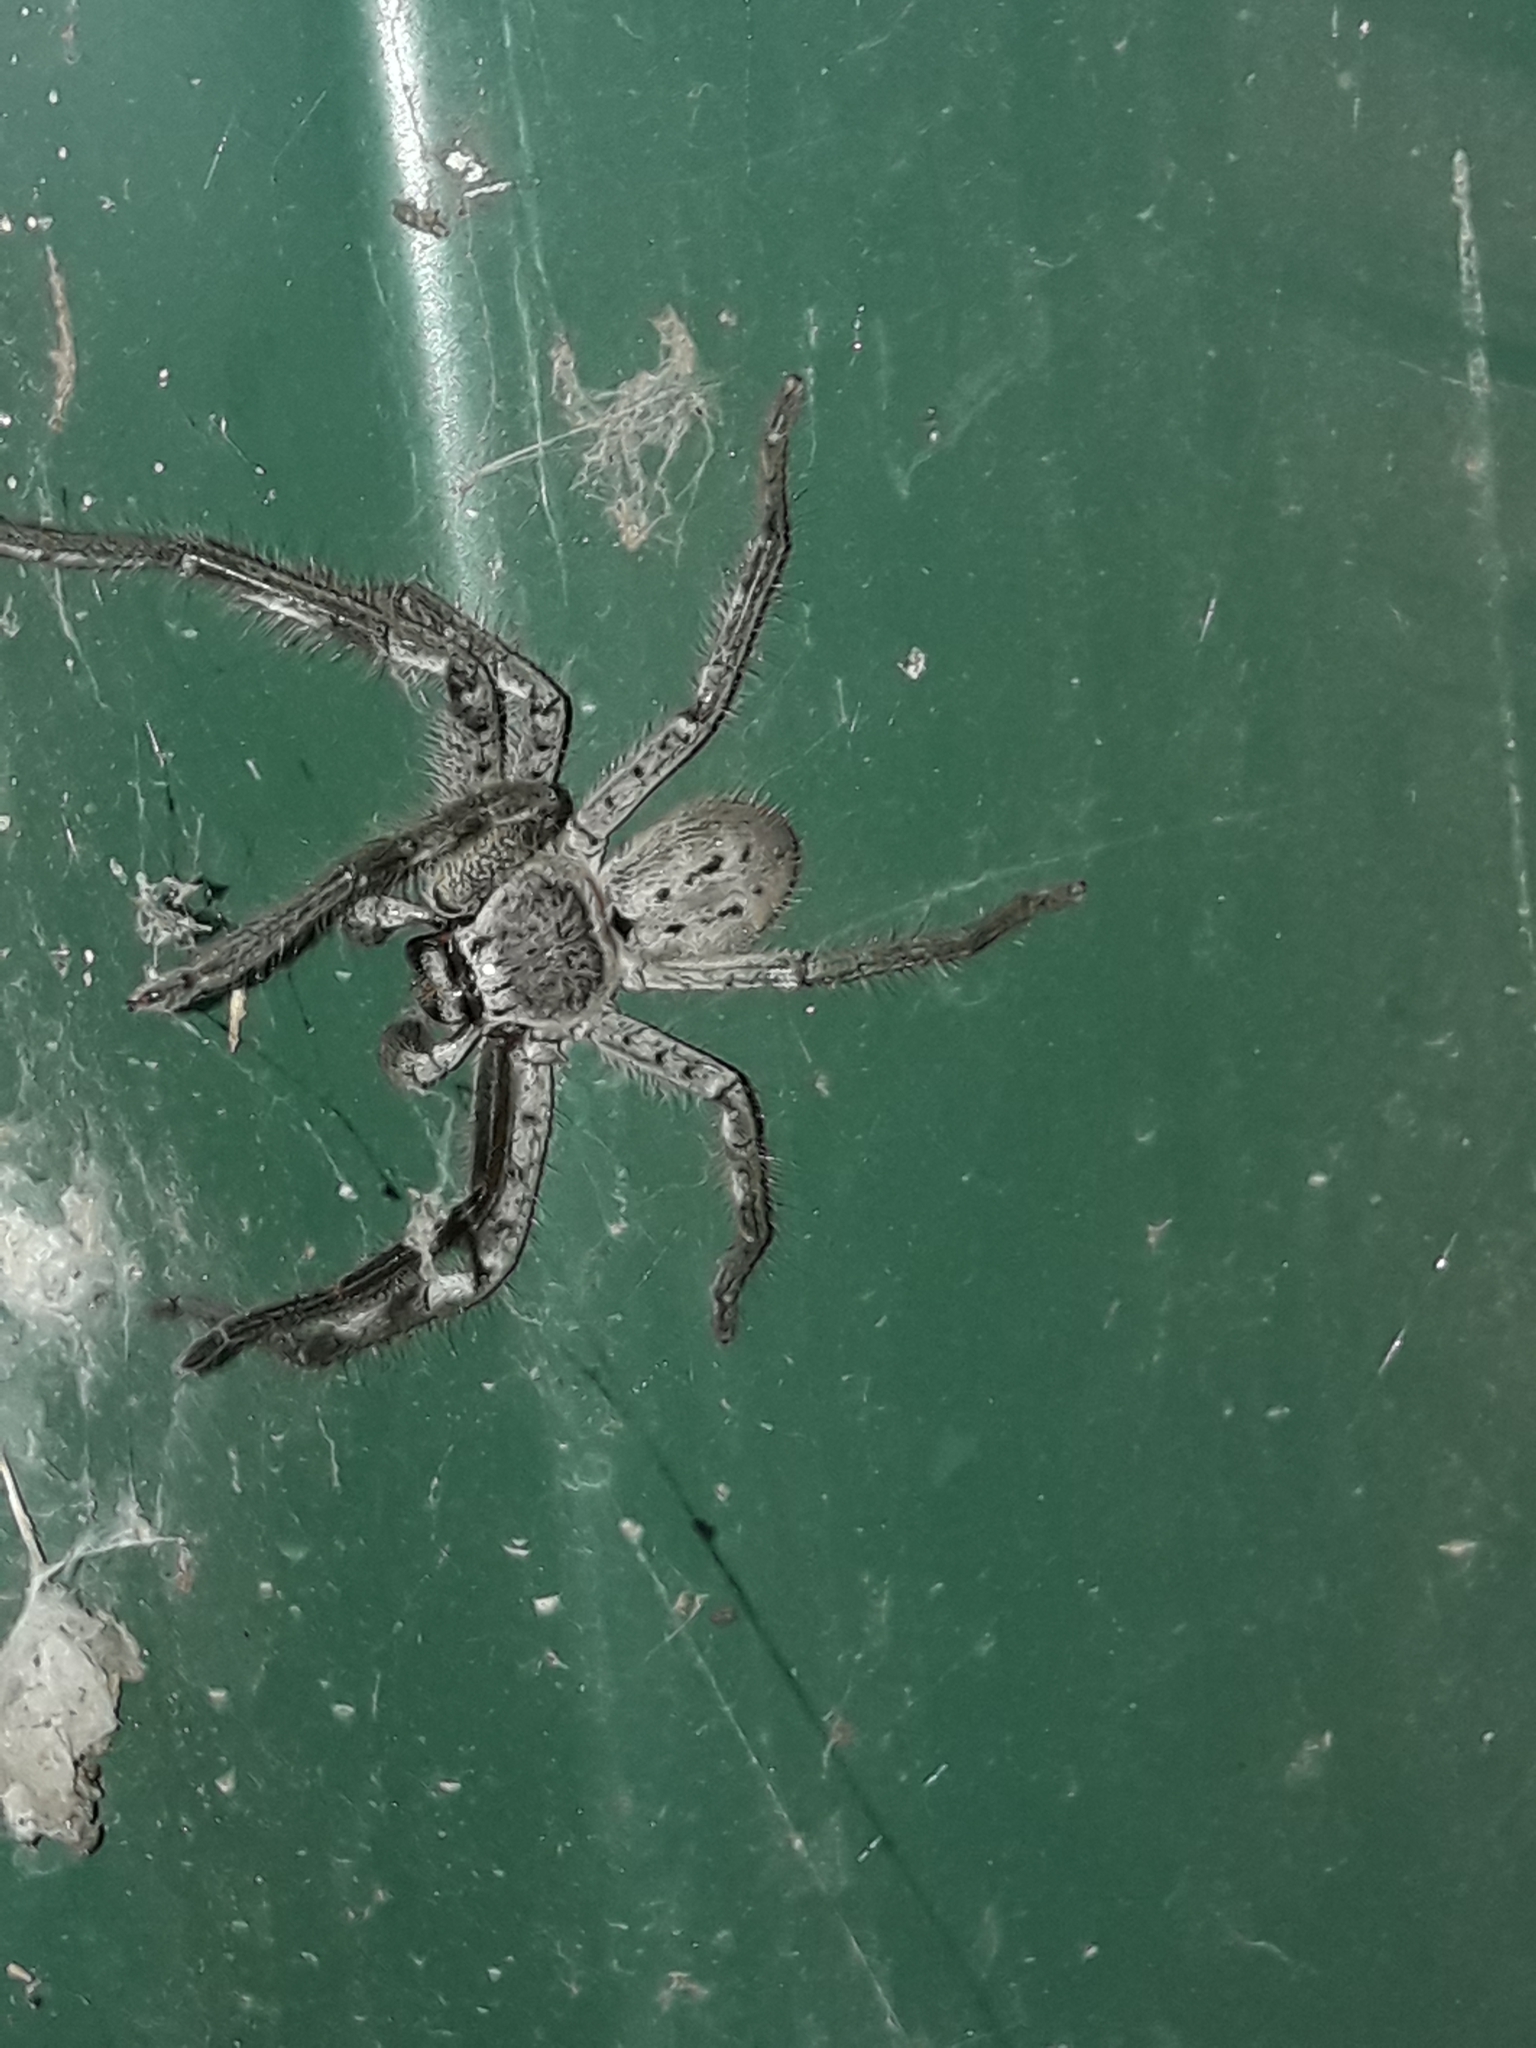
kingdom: Animalia
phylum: Arthropoda
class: Arachnida
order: Araneae
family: Sparassidae
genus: Isopeda
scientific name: Isopeda montana
